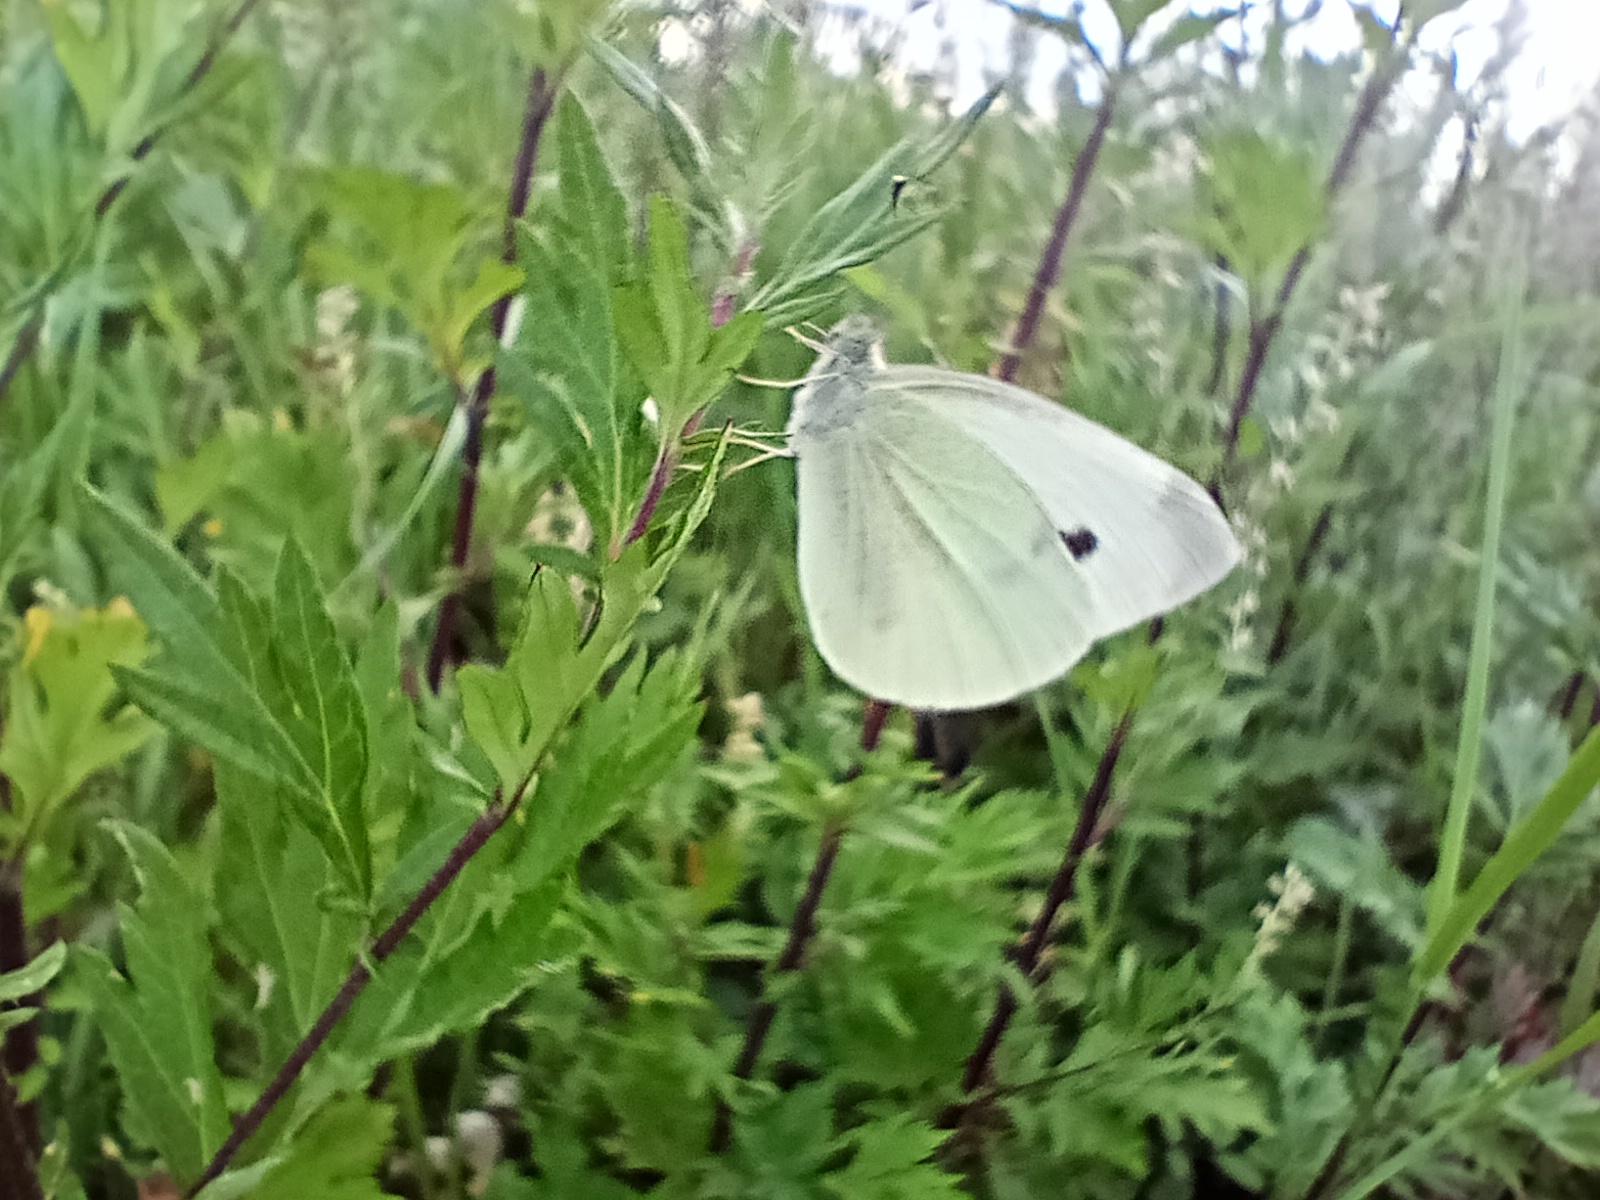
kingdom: Animalia
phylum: Arthropoda
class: Insecta
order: Lepidoptera
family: Pieridae
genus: Pieris
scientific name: Pieris rapae
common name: Small white
